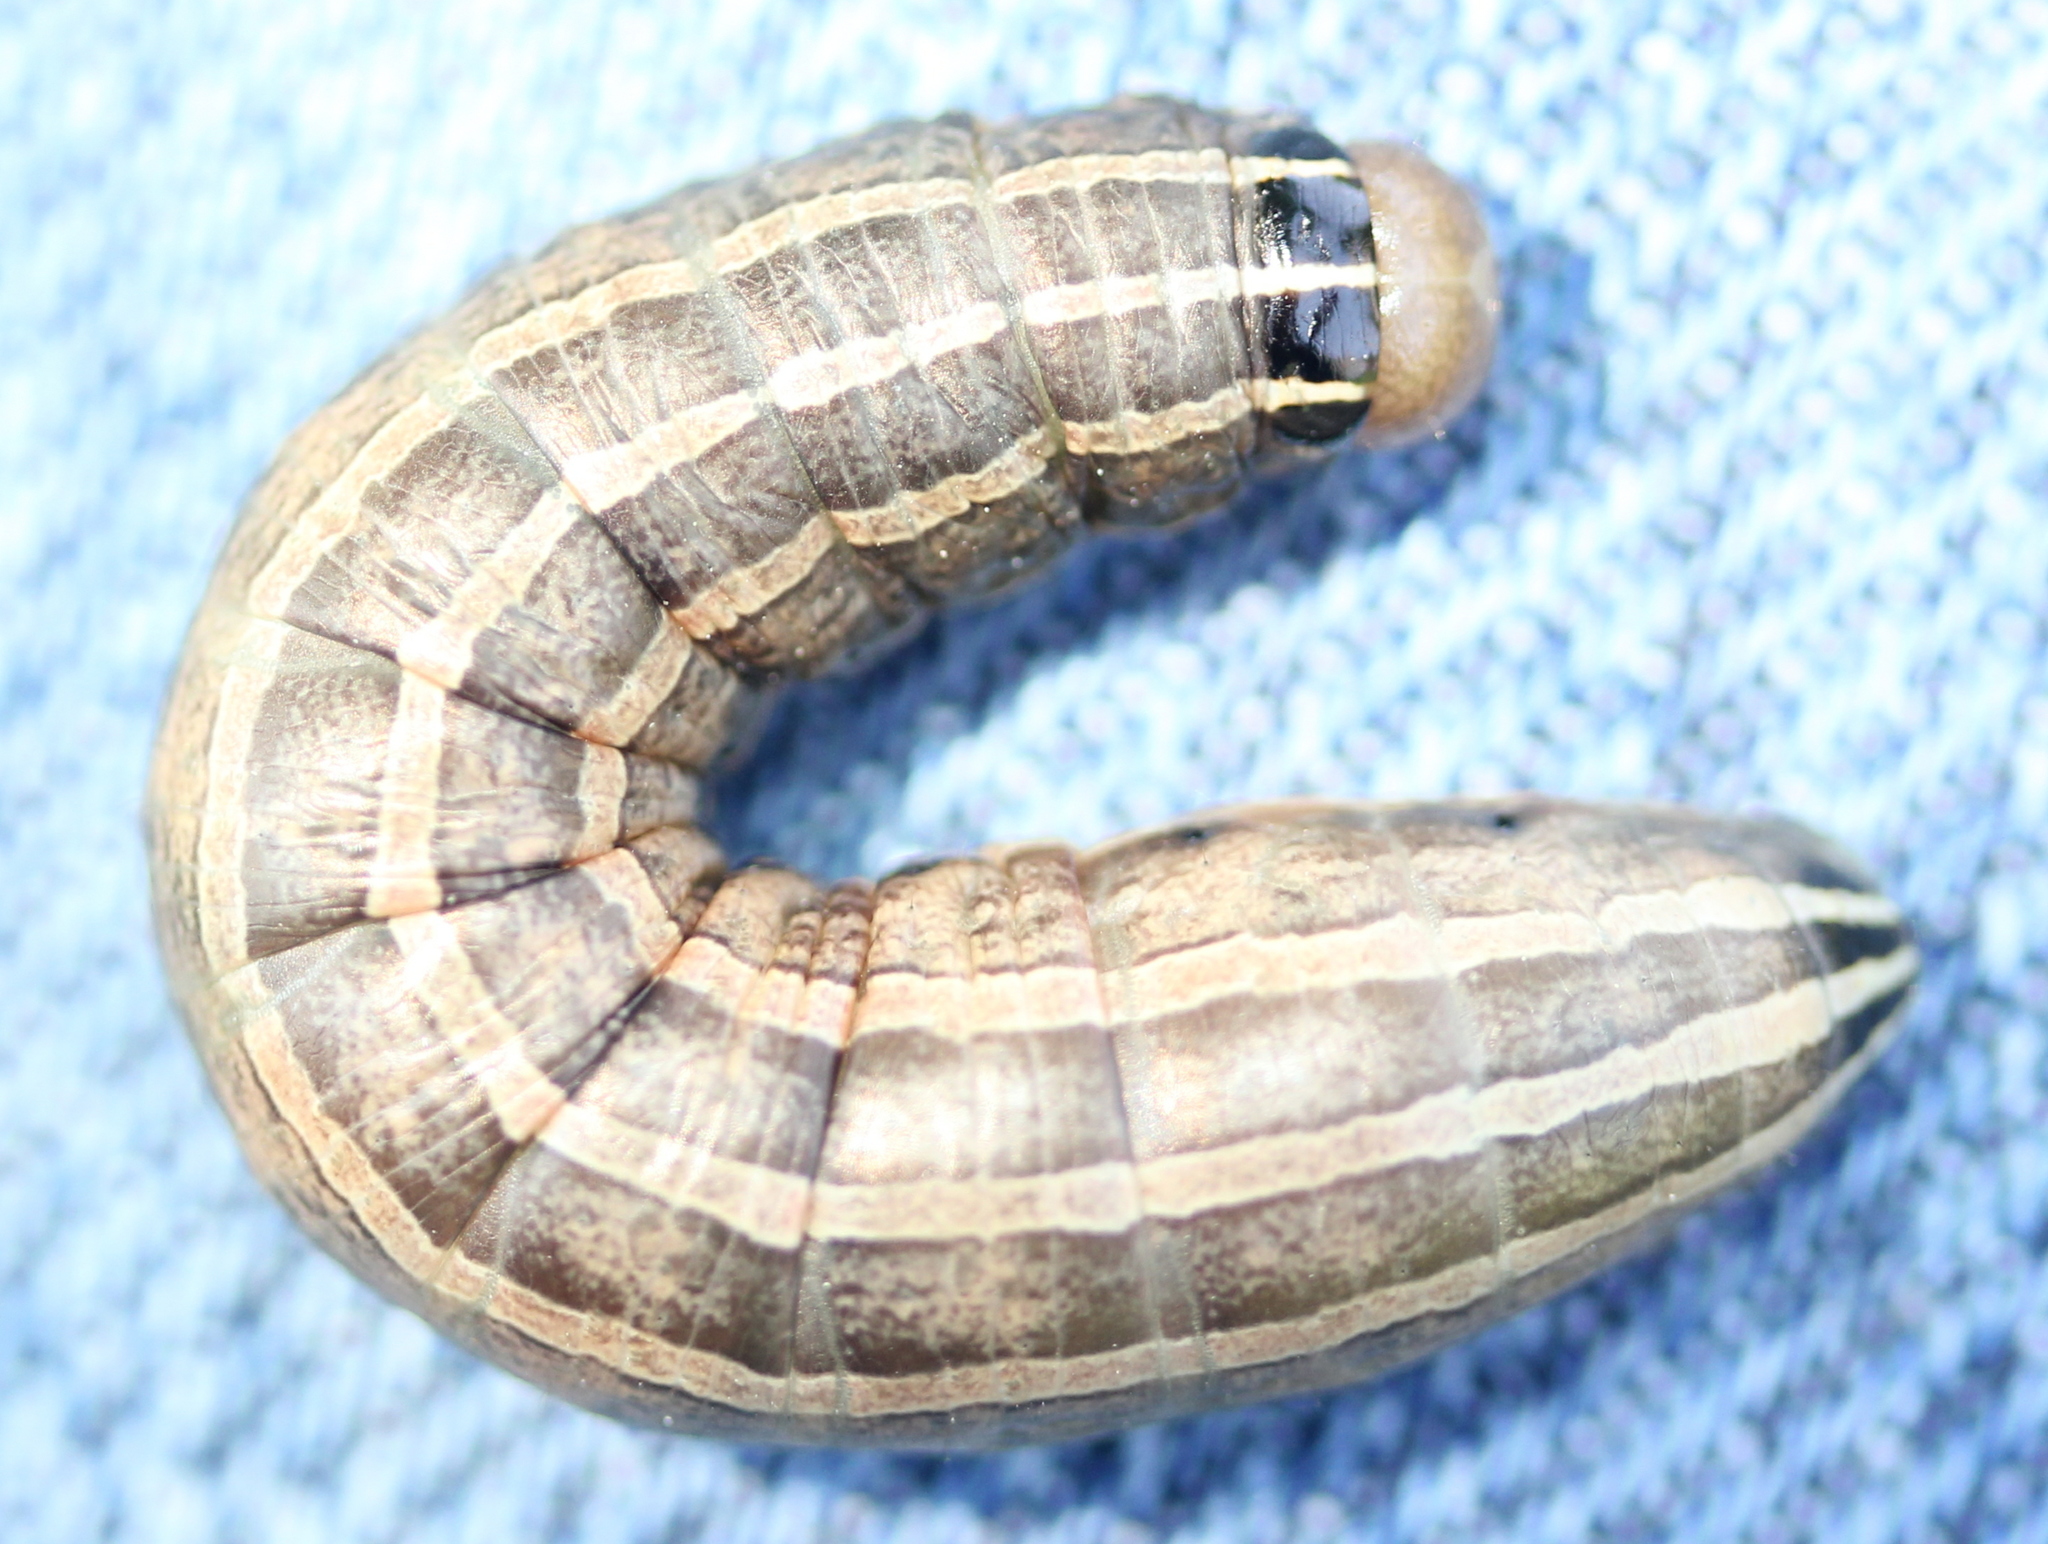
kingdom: Animalia
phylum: Arthropoda
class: Insecta
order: Lepidoptera
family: Noctuidae
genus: Nephelodes
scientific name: Nephelodes minians
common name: Bronzed cutworm
